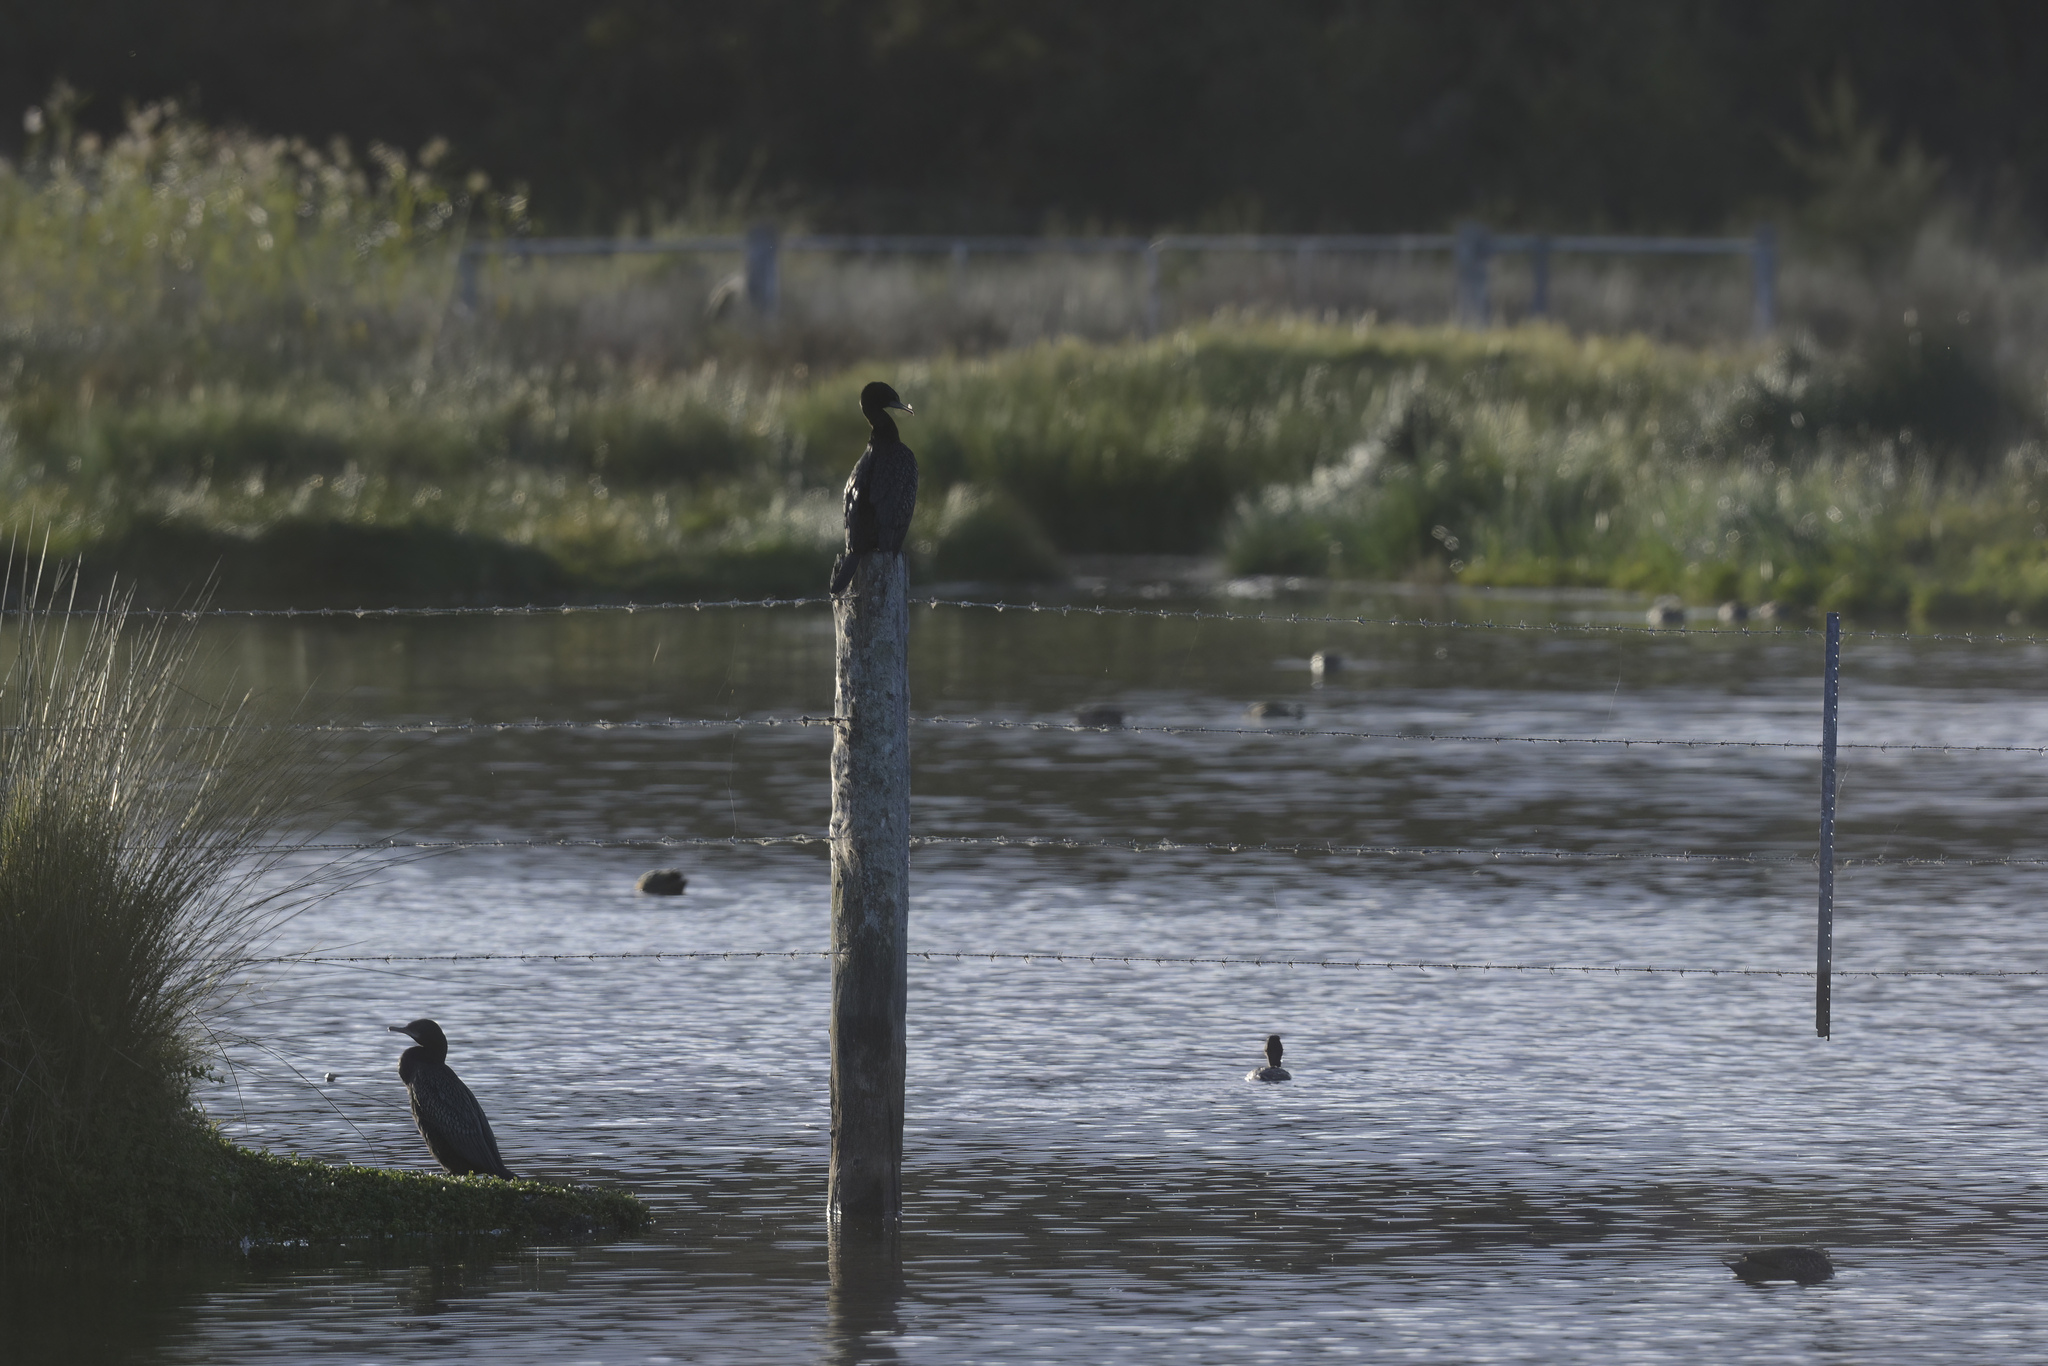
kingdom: Animalia
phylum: Chordata
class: Aves
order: Suliformes
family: Phalacrocoracidae
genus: Phalacrocorax
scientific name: Phalacrocorax sulcirostris
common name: Little black cormorant
